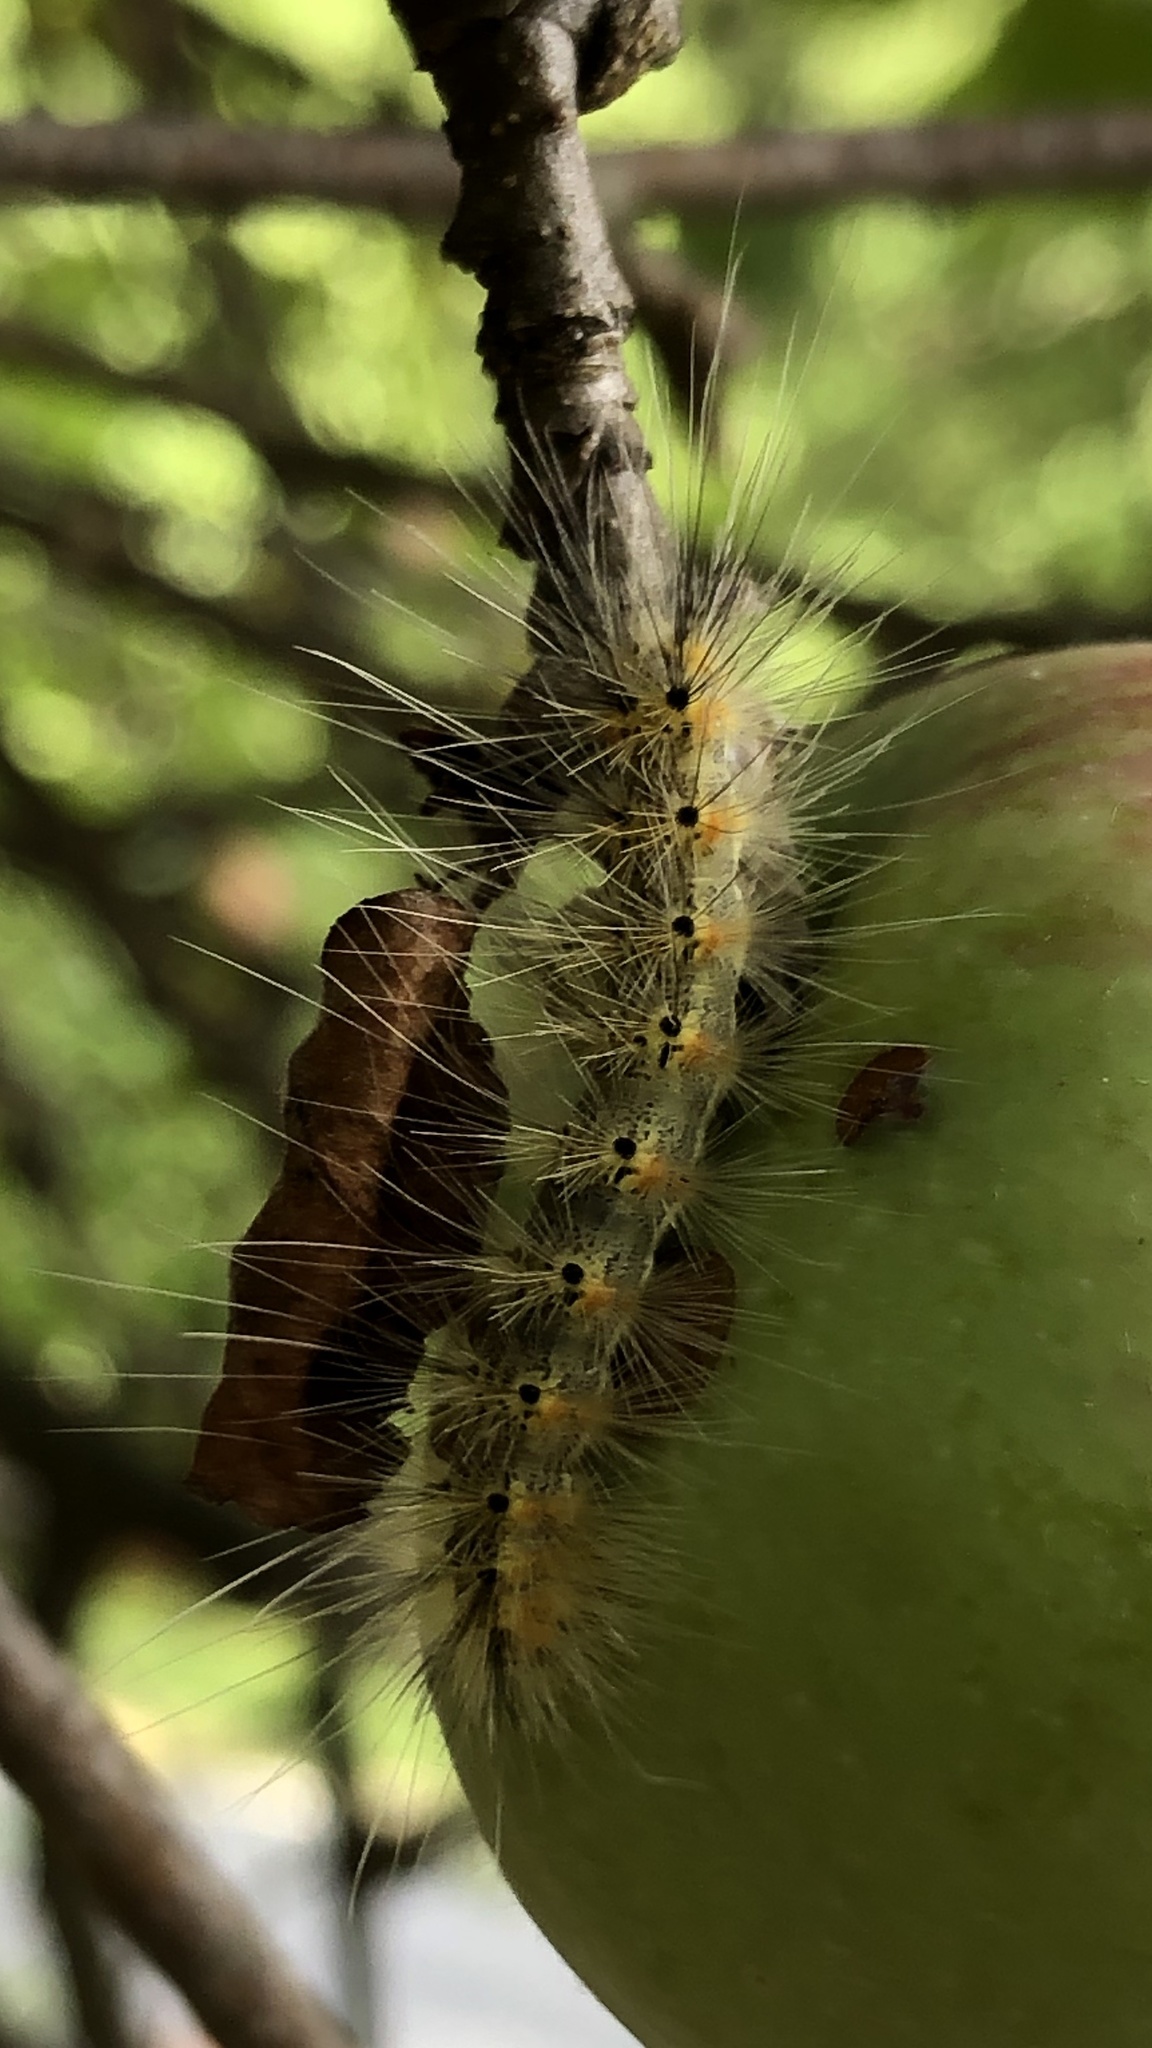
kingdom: Animalia
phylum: Arthropoda
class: Insecta
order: Lepidoptera
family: Erebidae
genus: Hyphantria
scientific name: Hyphantria cunea
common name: American white moth
